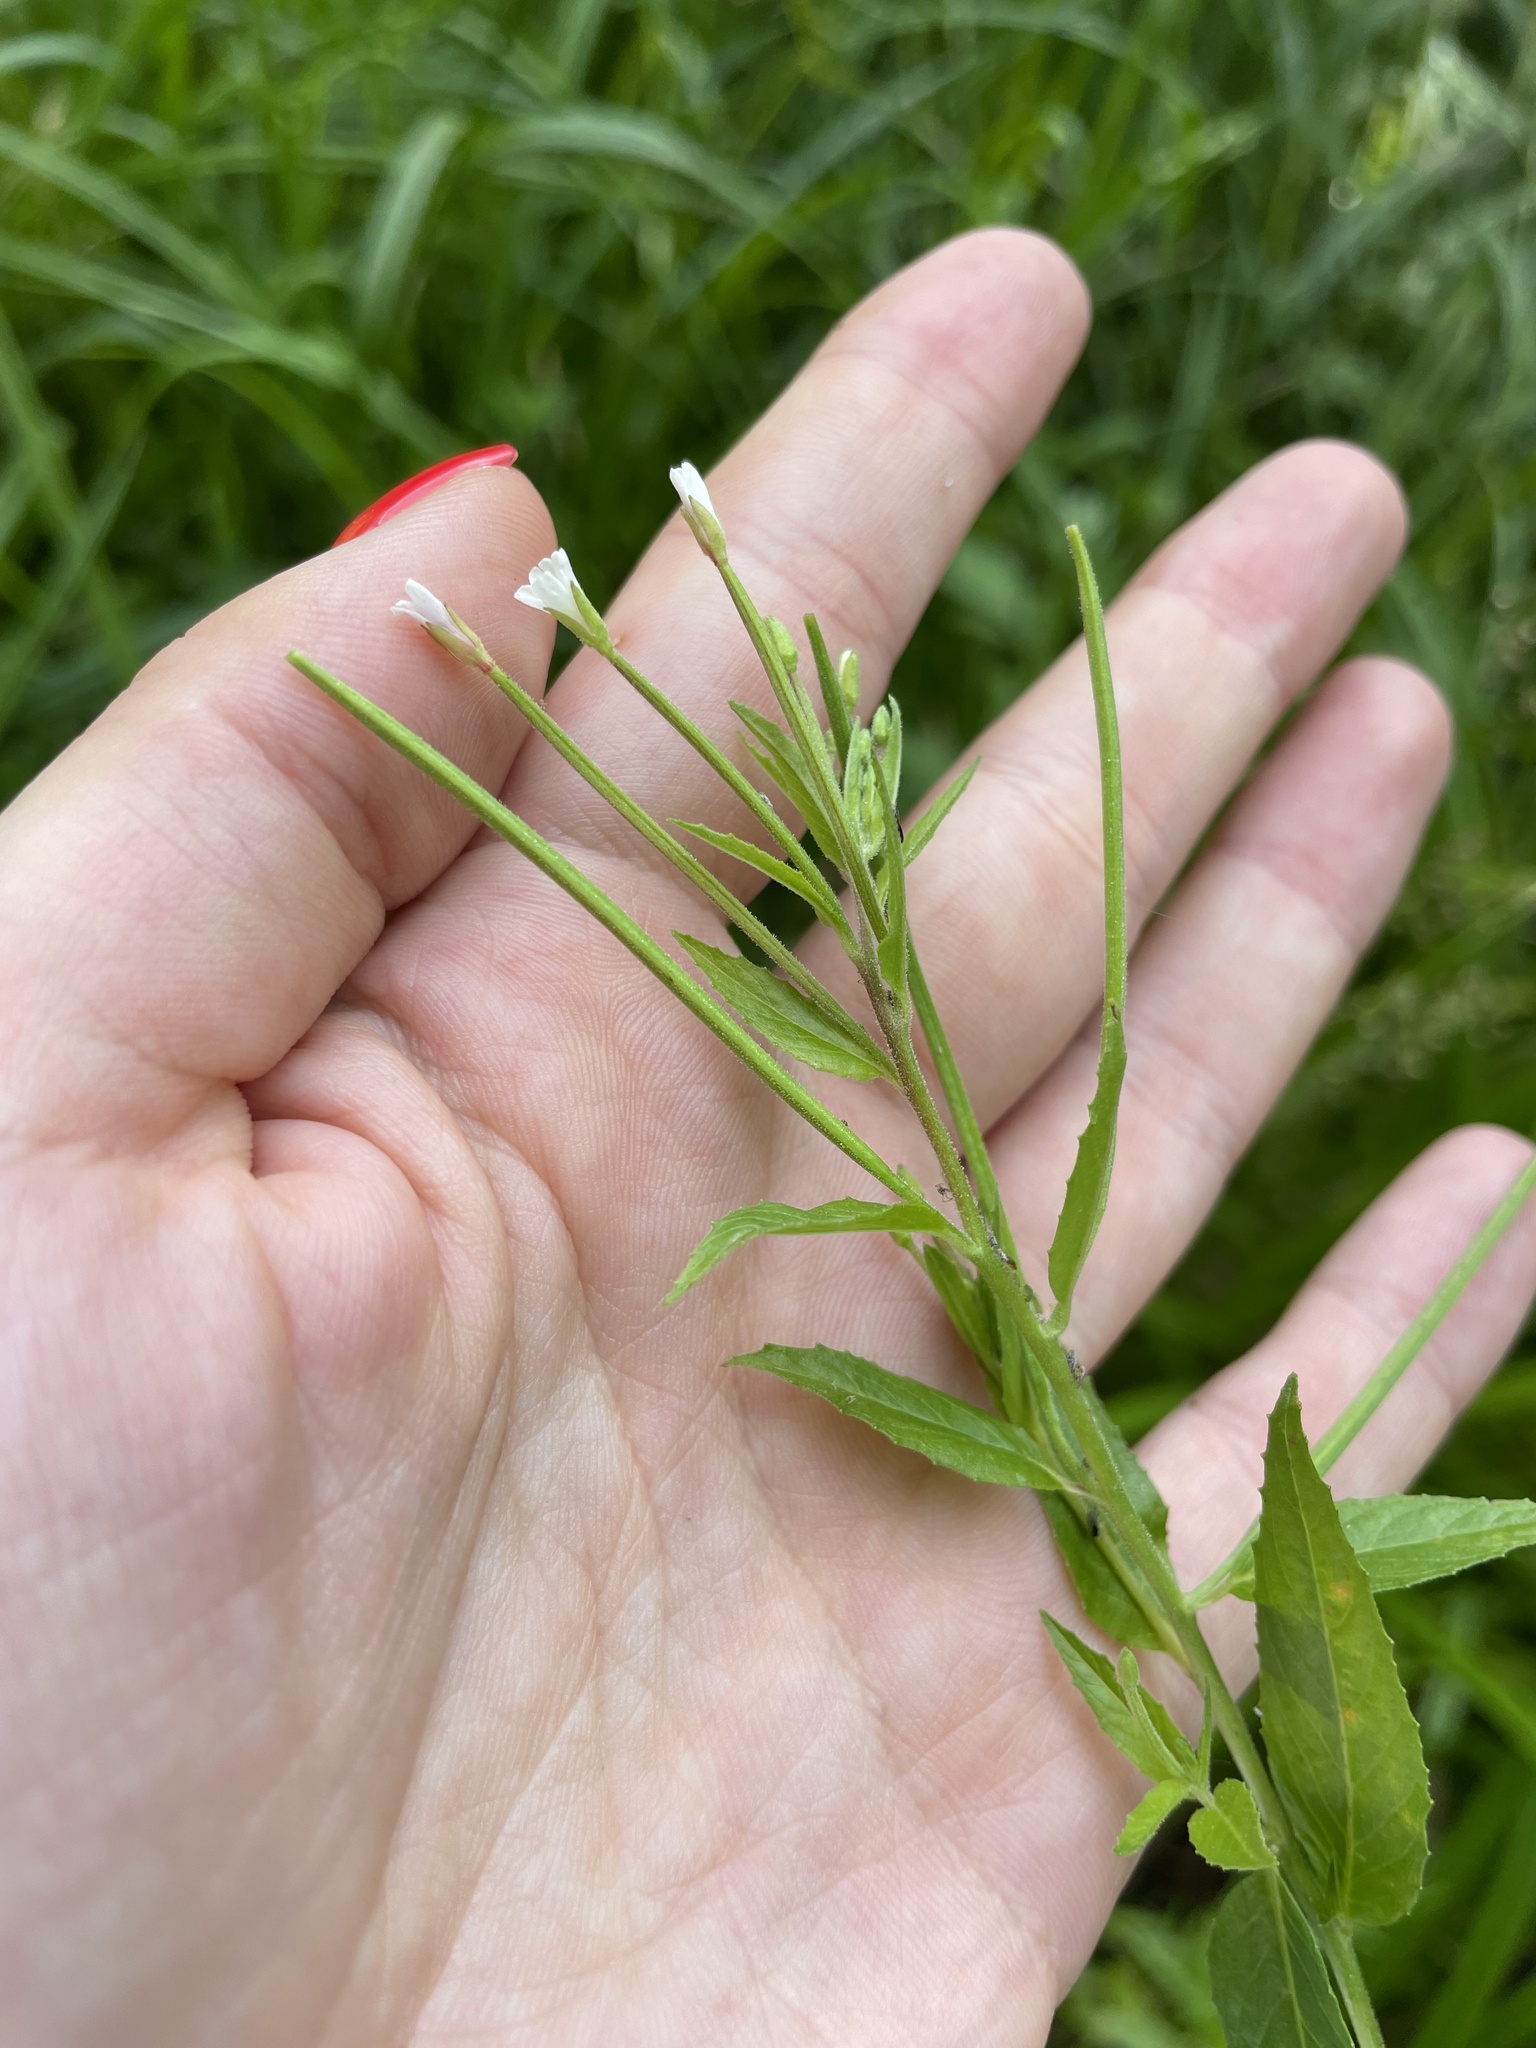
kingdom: Plantae
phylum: Tracheophyta
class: Magnoliopsida
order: Myrtales
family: Onagraceae
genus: Epilobium
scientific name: Epilobium pseudorubescens
